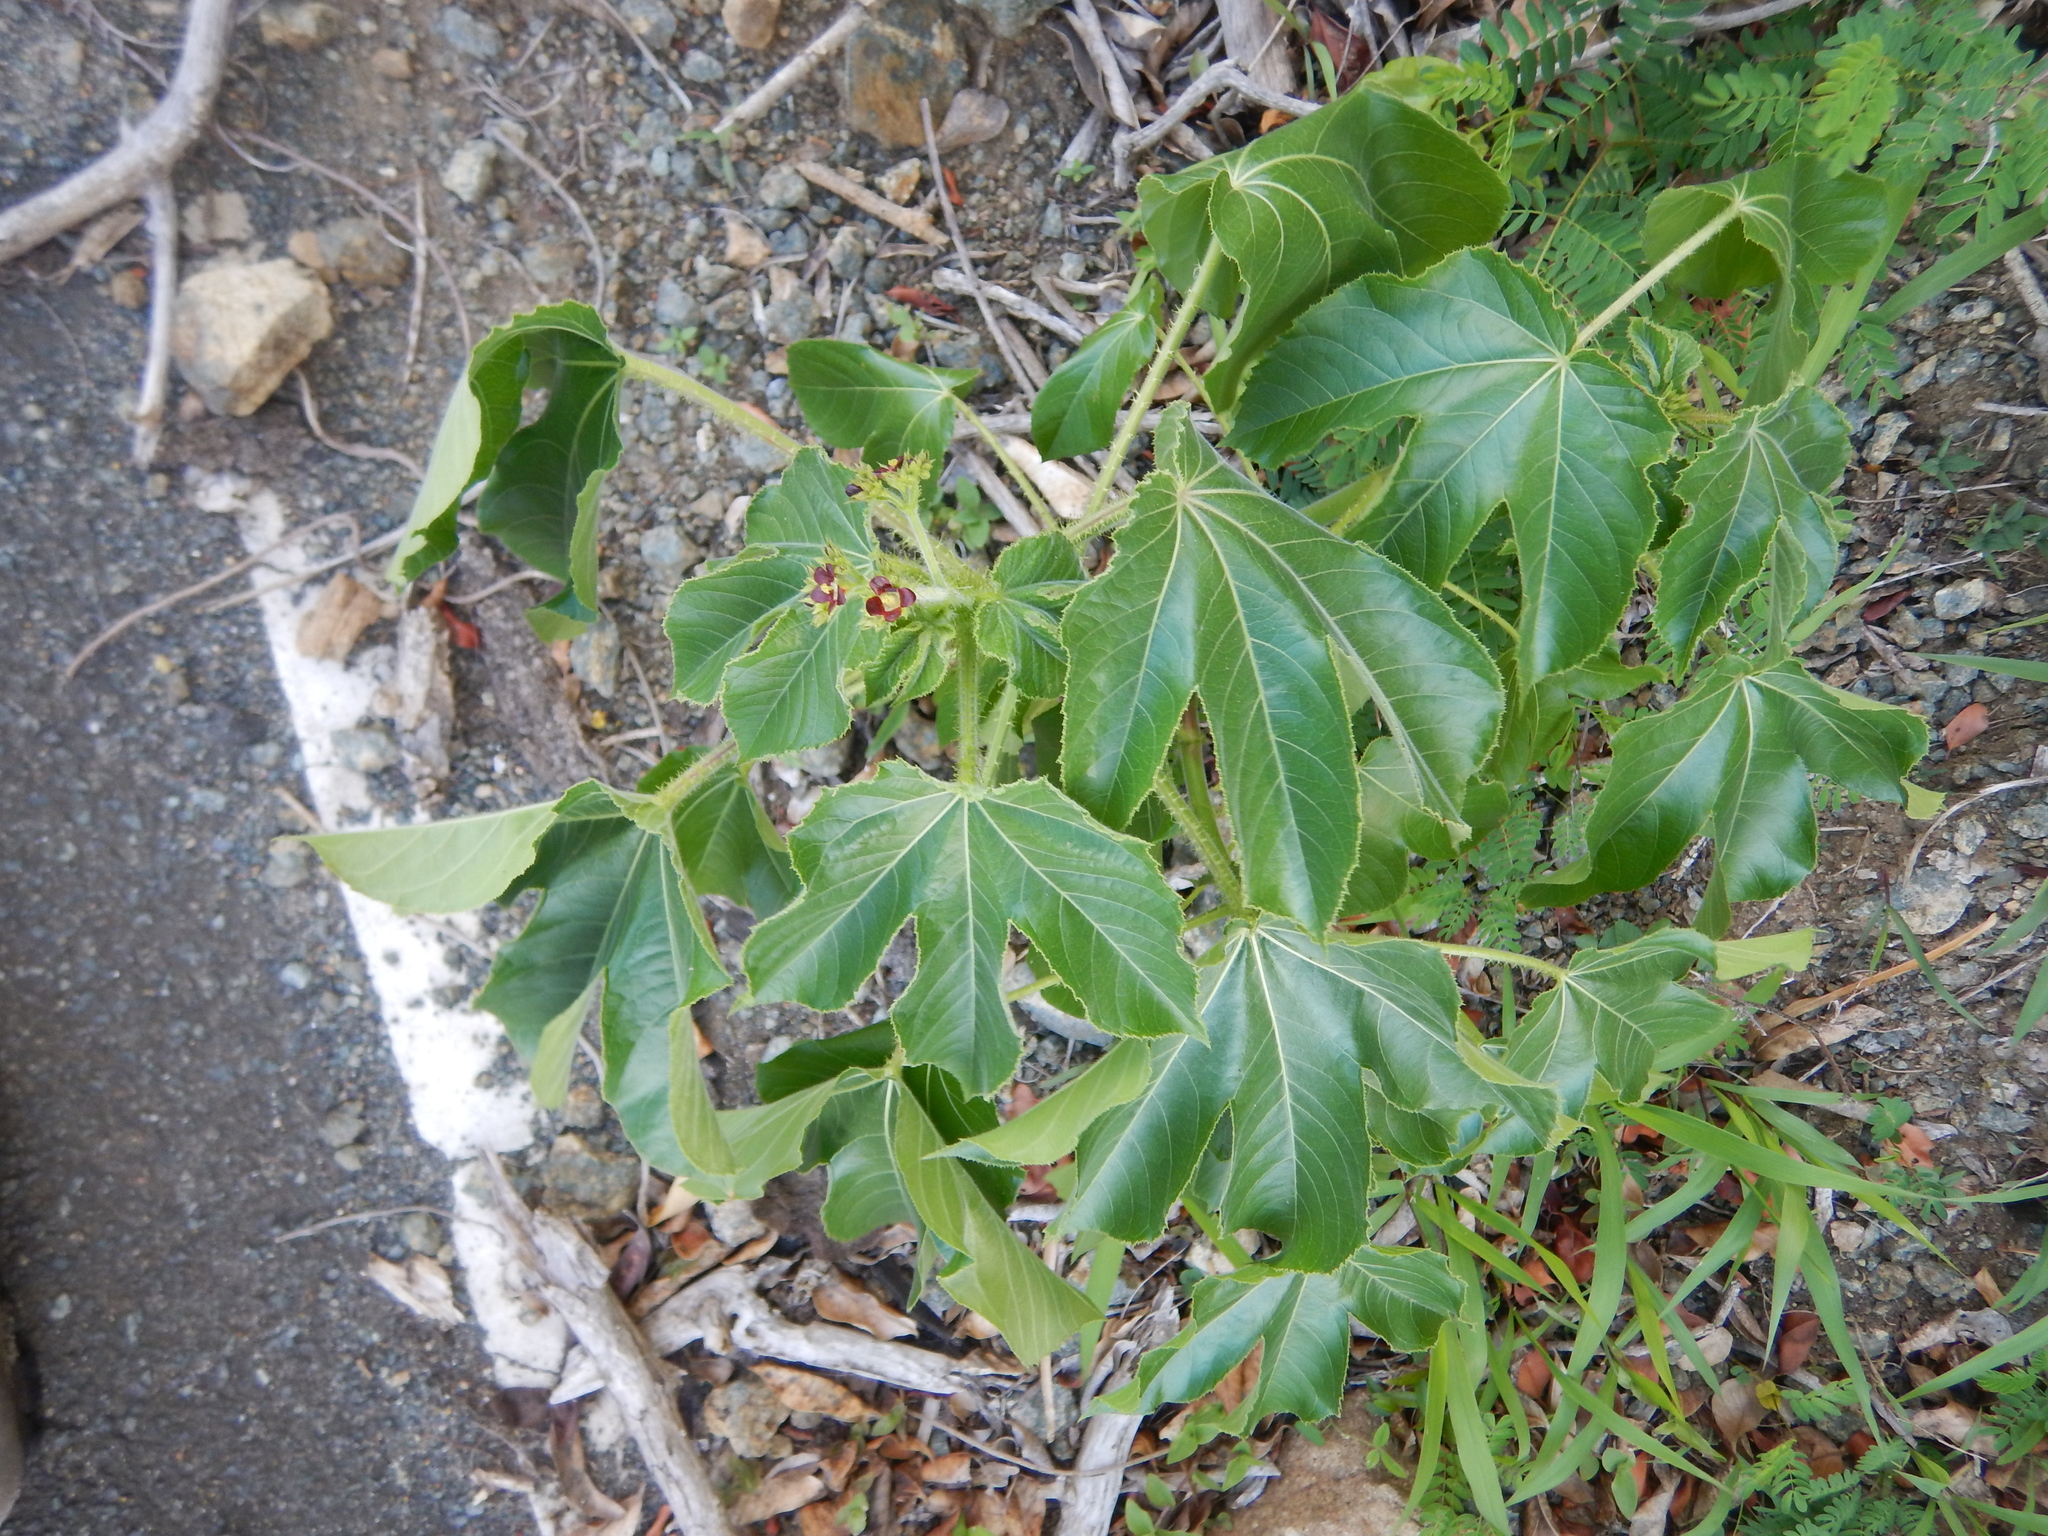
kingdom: Plantae
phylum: Tracheophyta
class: Magnoliopsida
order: Malpighiales
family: Euphorbiaceae
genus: Jatropha
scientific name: Jatropha gossypiifolia
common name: Bellyache bush
